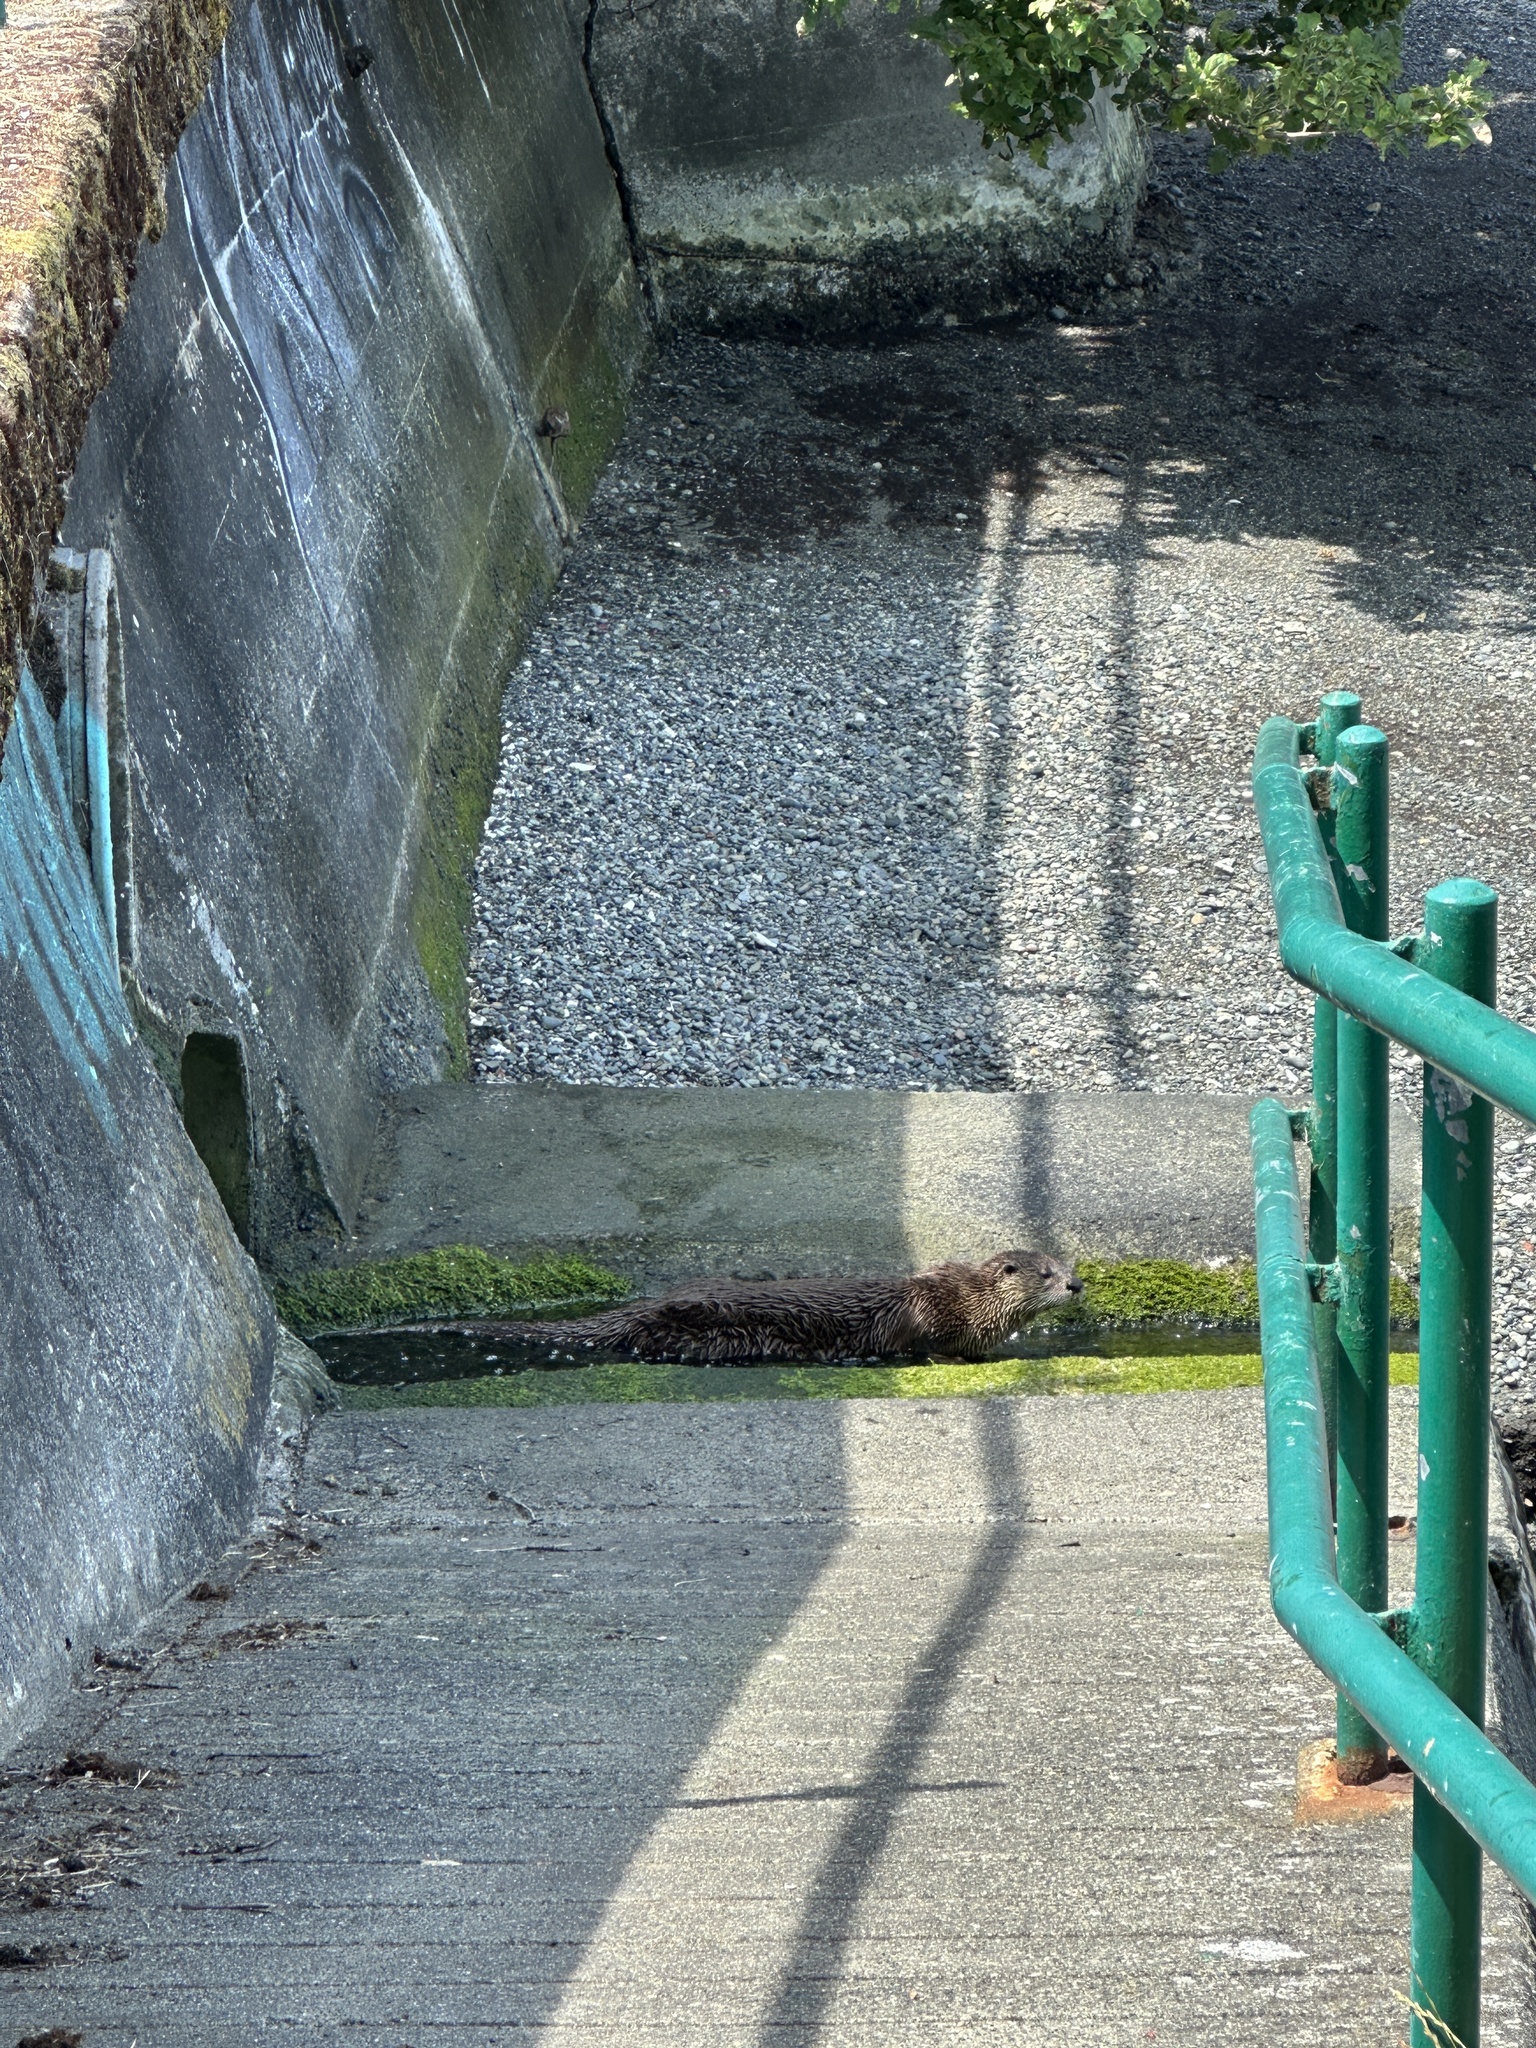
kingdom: Animalia
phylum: Chordata
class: Mammalia
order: Carnivora
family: Mustelidae
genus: Lontra
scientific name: Lontra canadensis
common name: North american river otter
